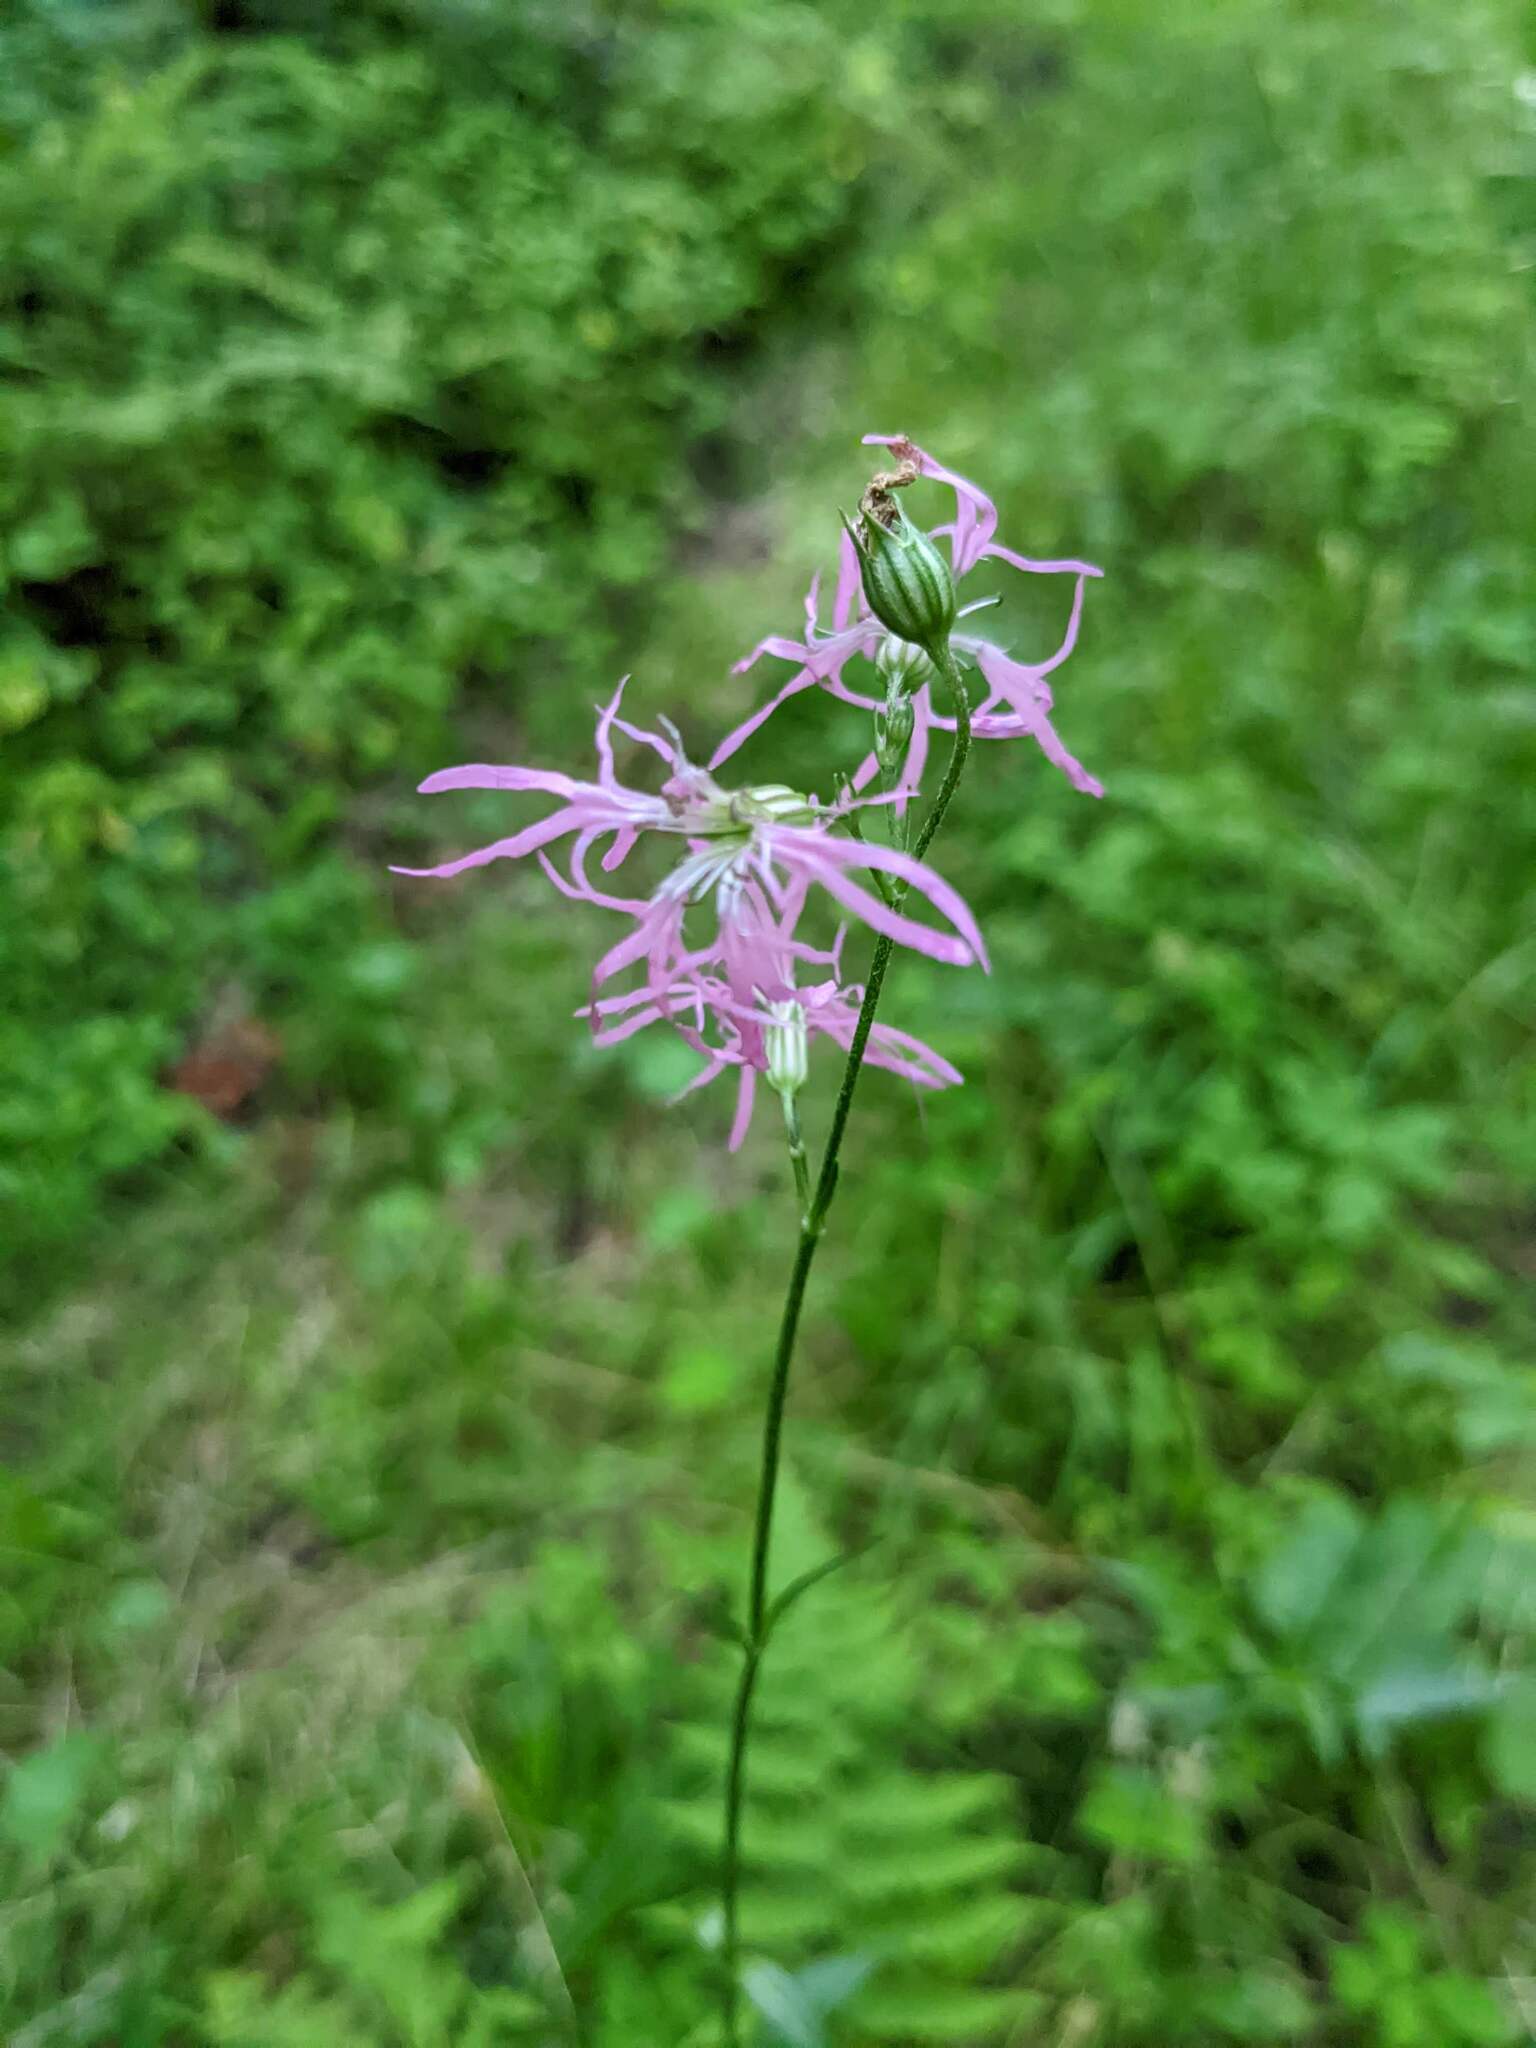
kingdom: Plantae
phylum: Tracheophyta
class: Magnoliopsida
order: Caryophyllales
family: Caryophyllaceae
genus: Silene
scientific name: Silene flos-cuculi
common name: Ragged-robin
